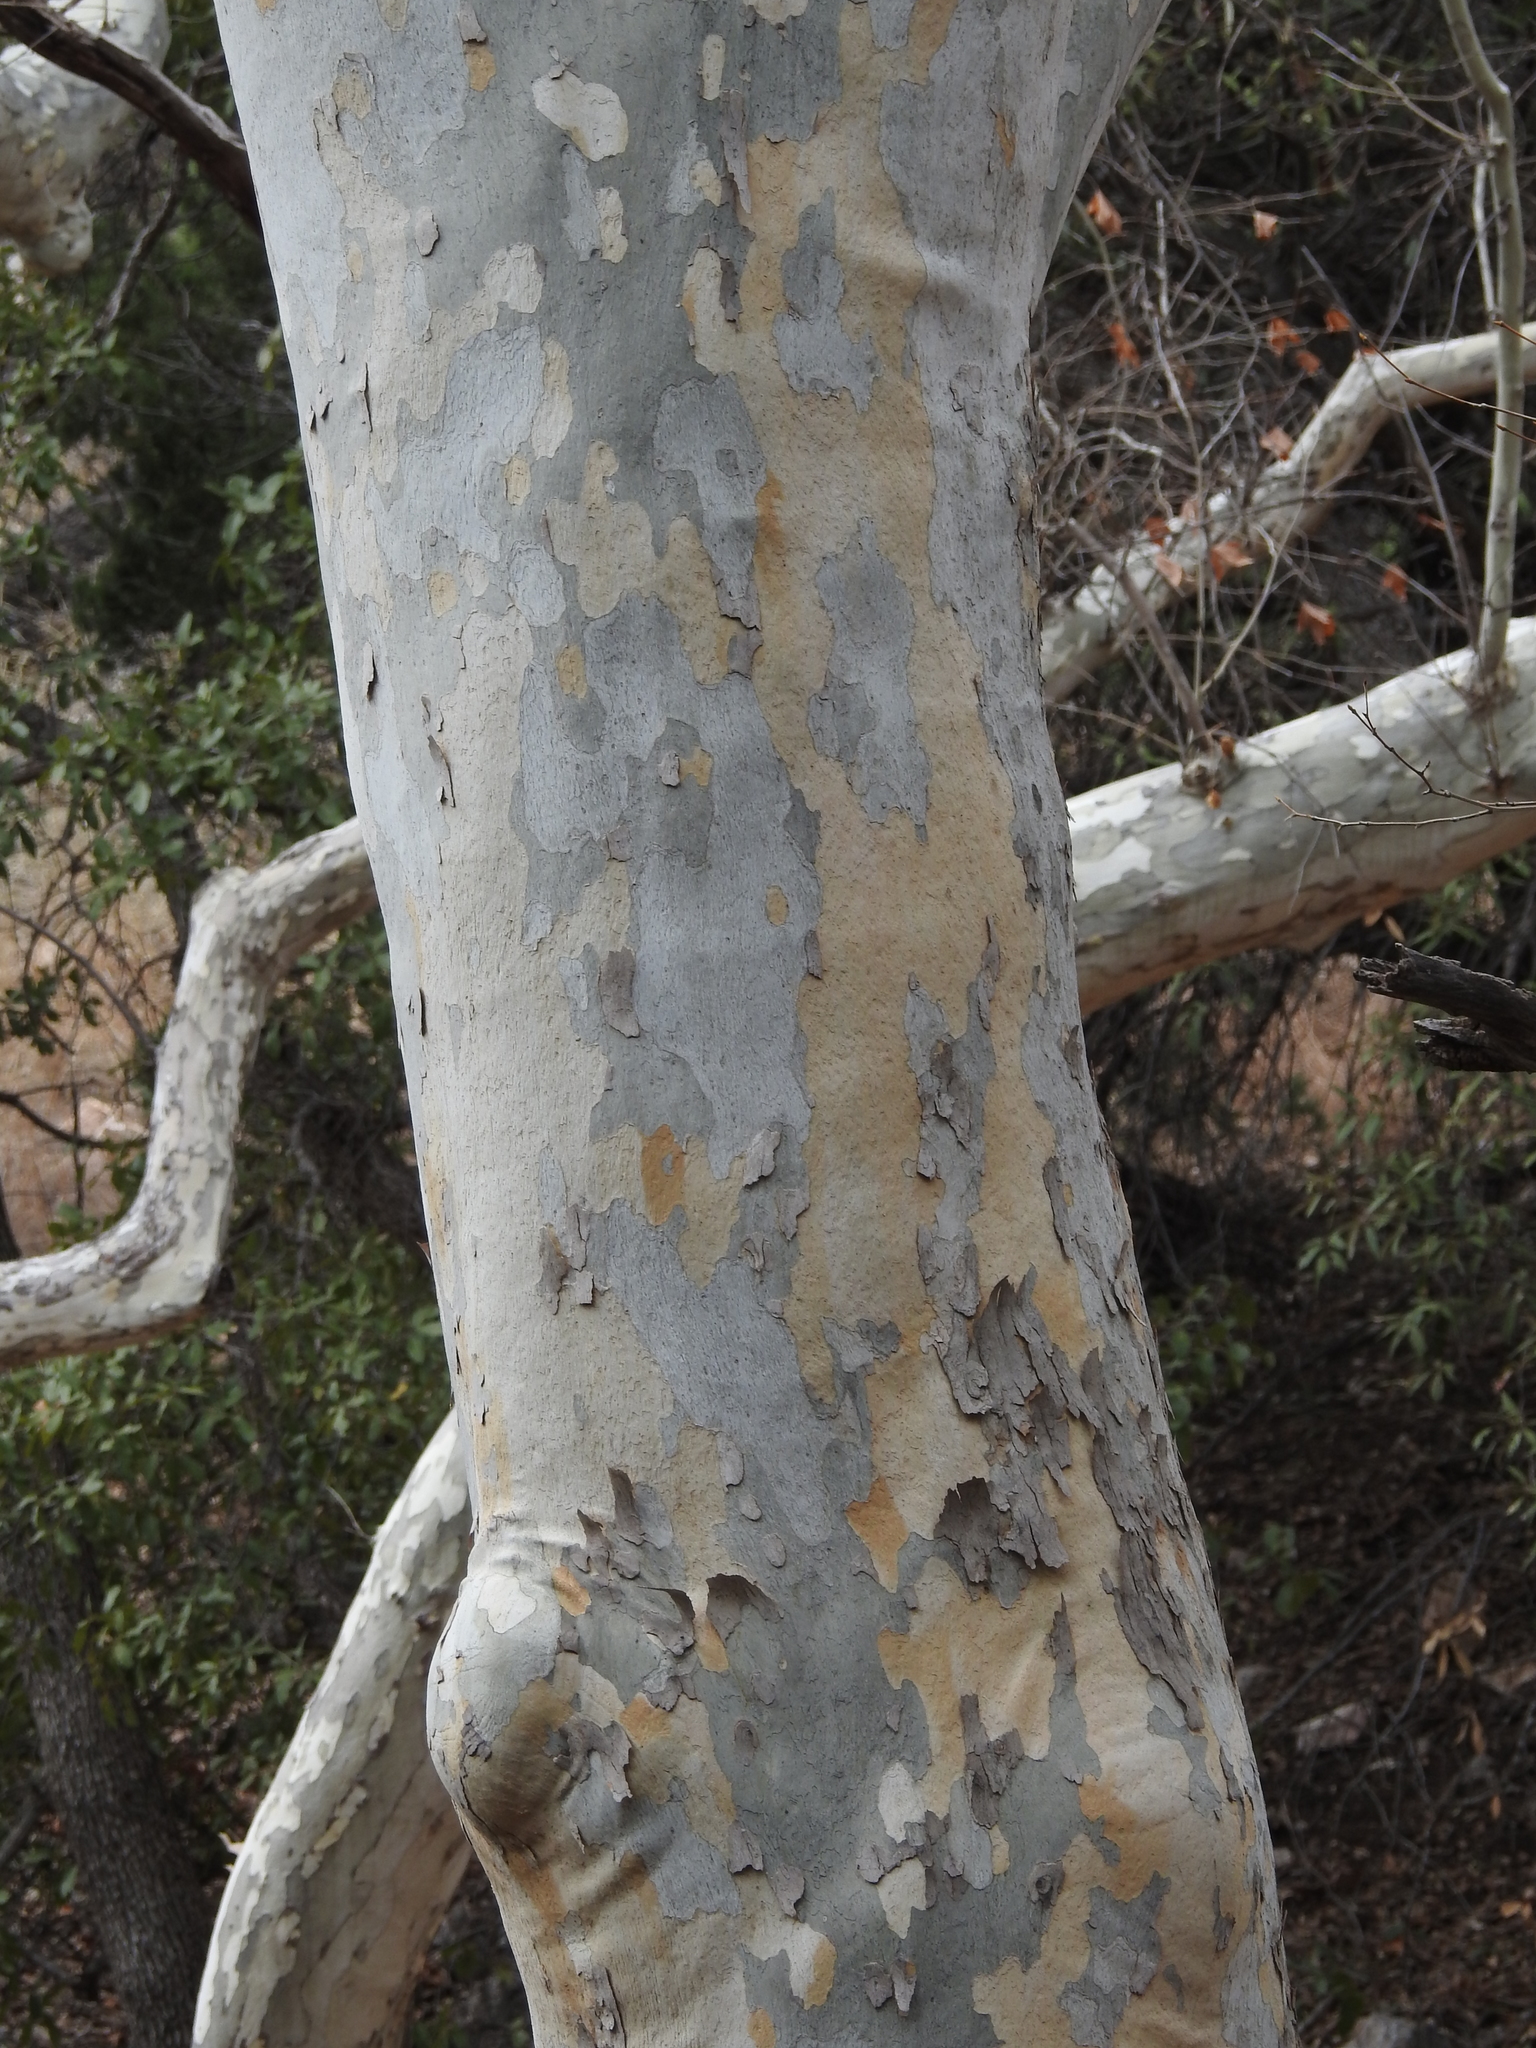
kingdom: Plantae
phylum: Tracheophyta
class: Magnoliopsida
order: Proteales
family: Platanaceae
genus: Platanus
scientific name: Platanus wrightii
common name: Arizona sycamore
